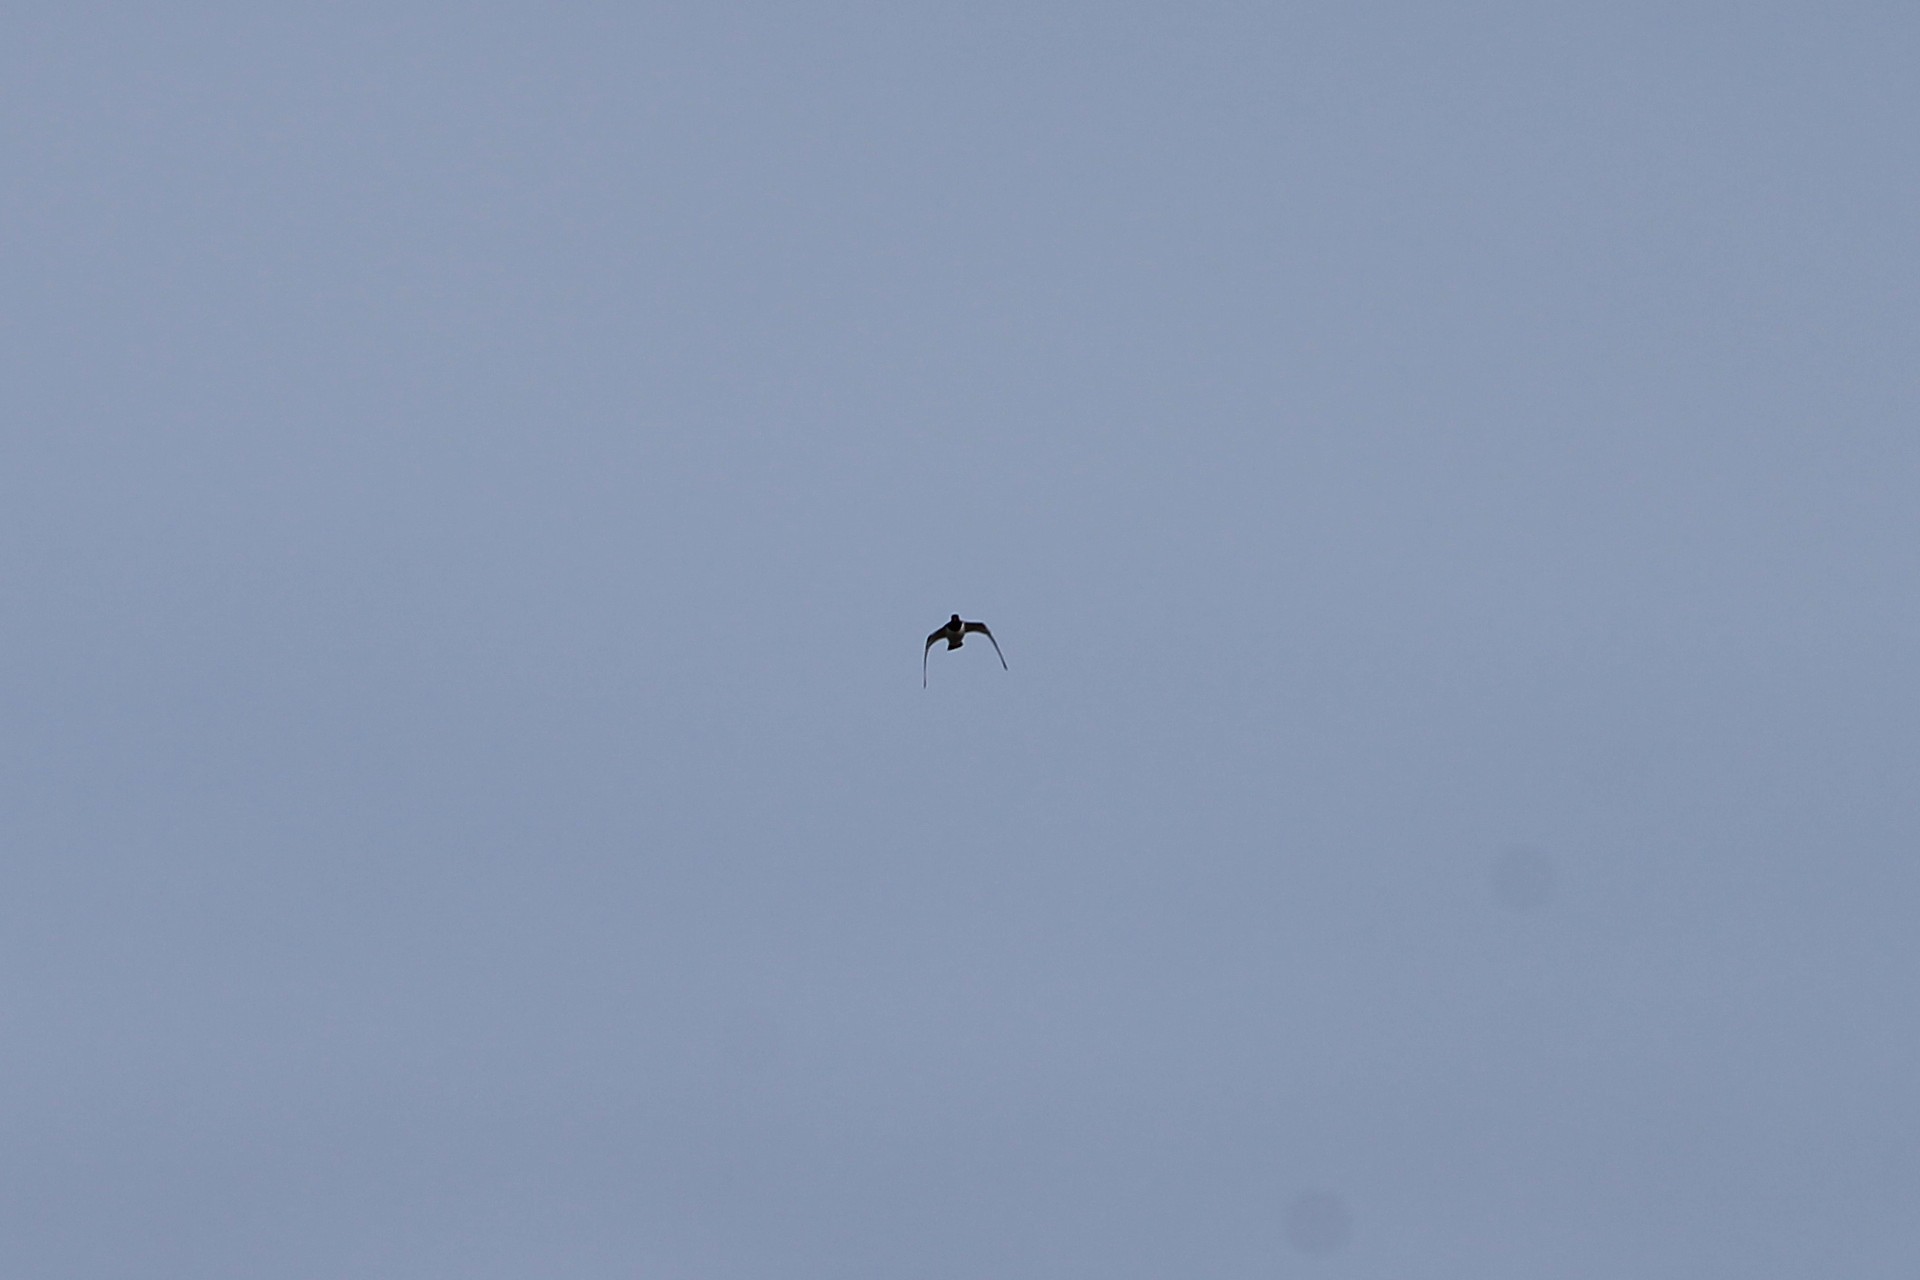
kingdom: Animalia
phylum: Chordata
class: Aves
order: Charadriiformes
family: Haematopodidae
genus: Haematopus
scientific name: Haematopus ostralegus
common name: Eurasian oystercatcher
